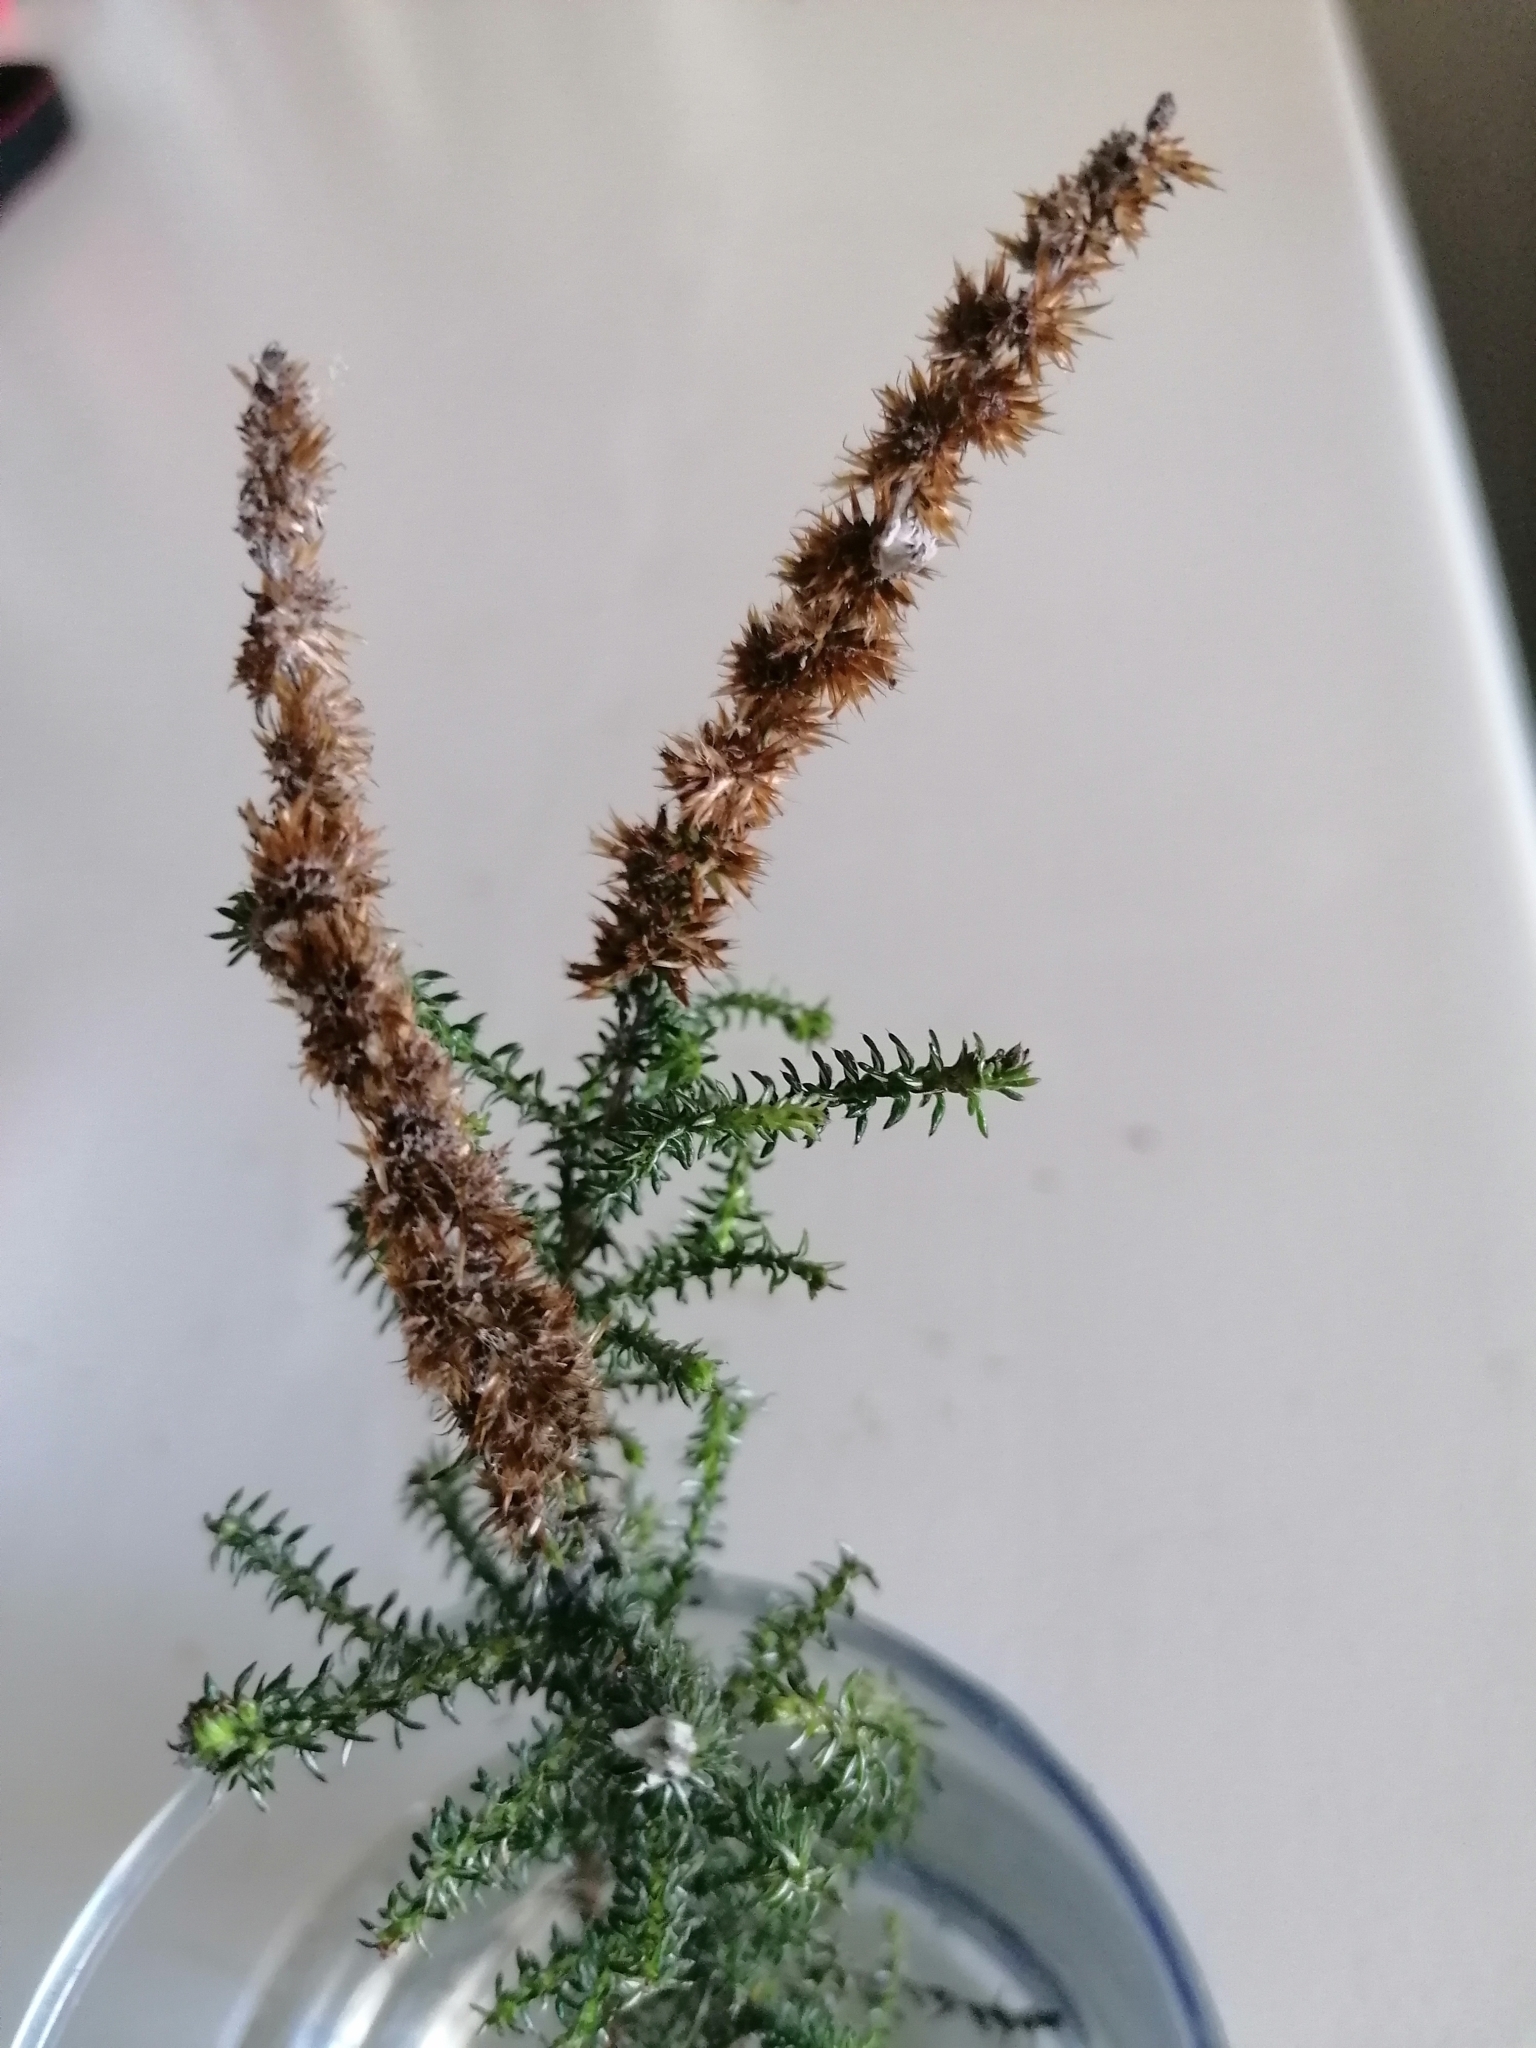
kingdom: Plantae
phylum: Tracheophyta
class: Magnoliopsida
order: Asterales
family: Asteraceae
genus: Seriphium
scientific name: Seriphium cinereum
